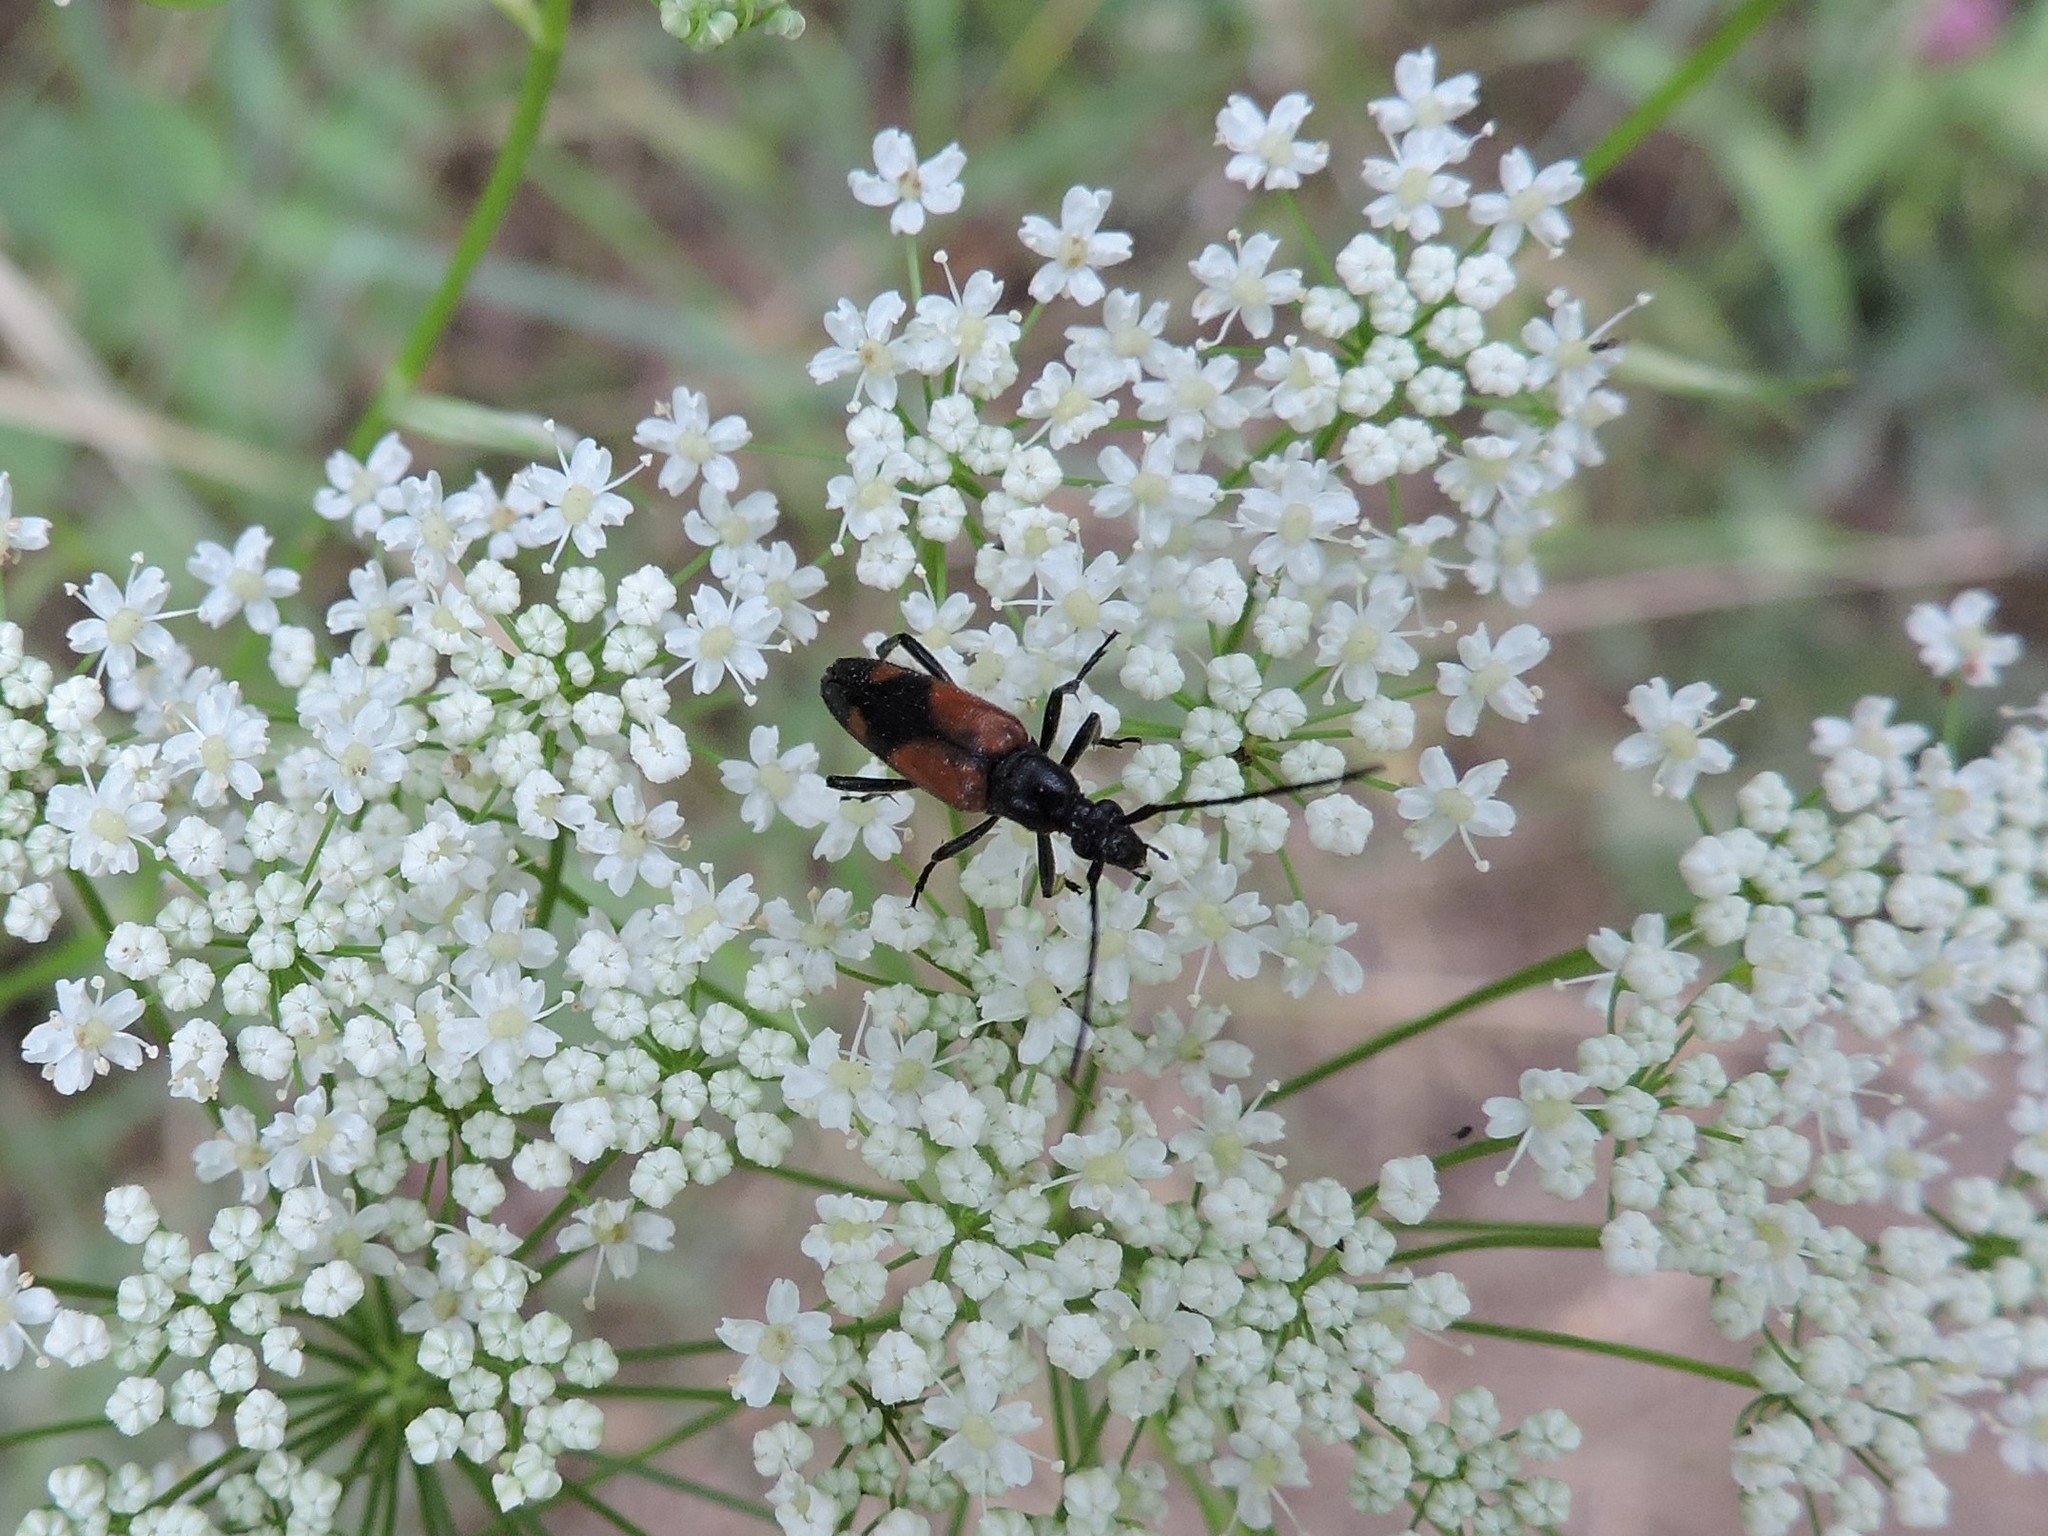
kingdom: Animalia
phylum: Arthropoda
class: Insecta
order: Coleoptera
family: Cerambycidae
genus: Stenurella
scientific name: Stenurella bifasciata
